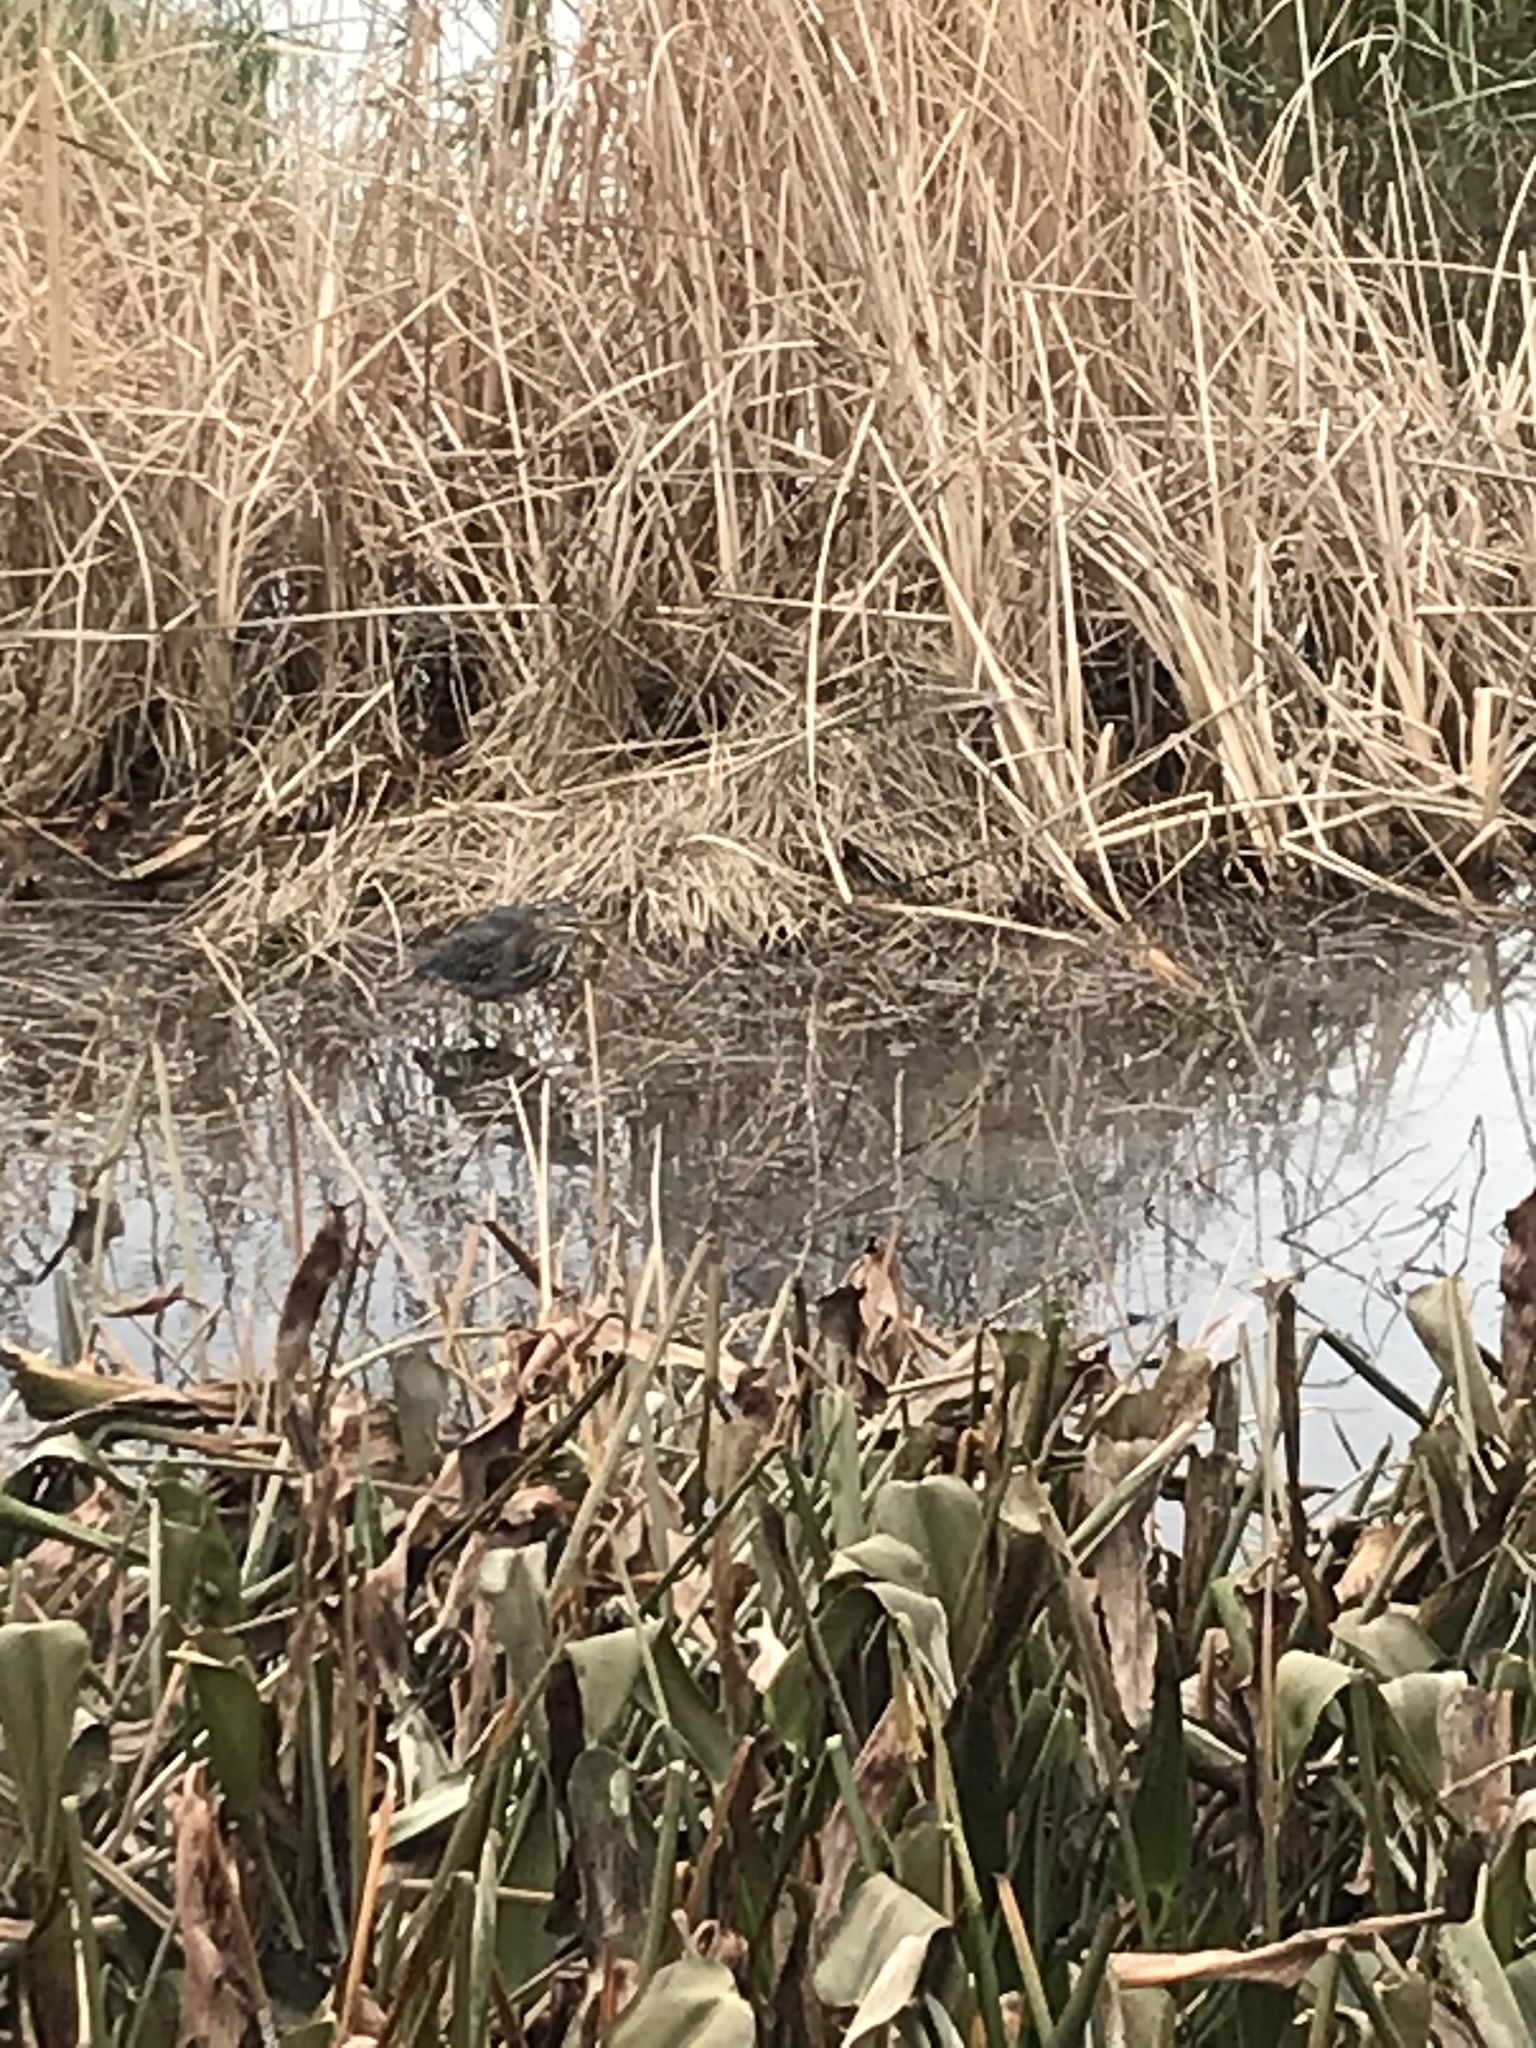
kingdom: Animalia
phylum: Chordata
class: Aves
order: Pelecaniformes
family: Ardeidae
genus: Butorides
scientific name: Butorides virescens
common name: Green heron
